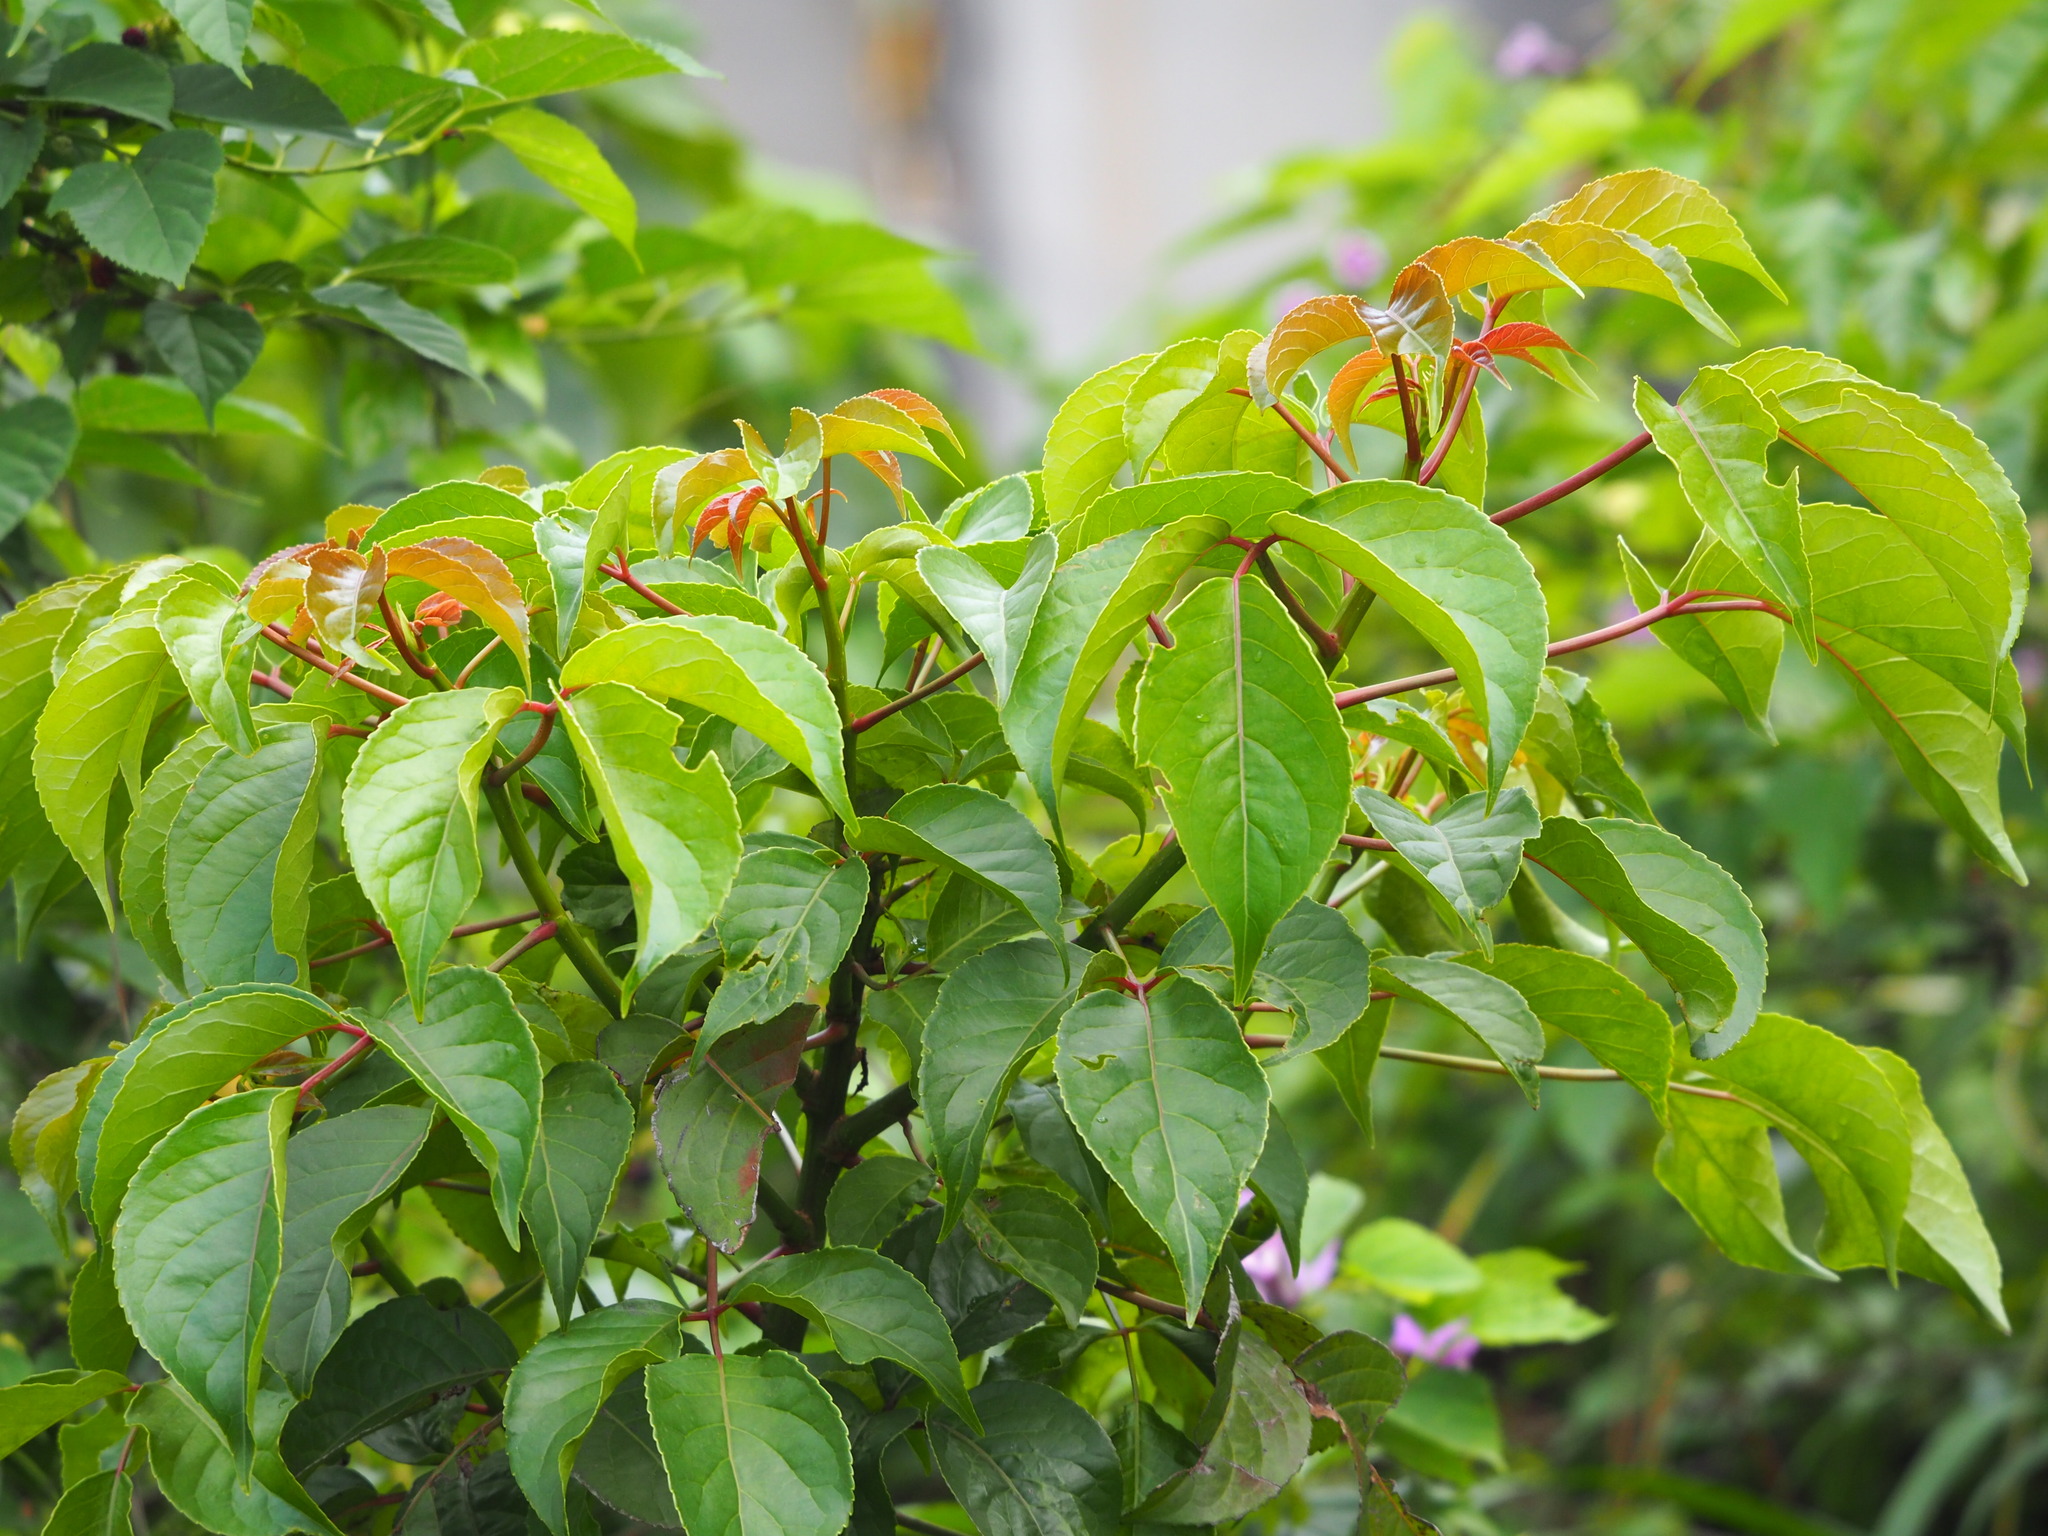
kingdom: Plantae
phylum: Tracheophyta
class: Magnoliopsida
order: Malpighiales
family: Phyllanthaceae
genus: Bischofia
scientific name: Bischofia javanica
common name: Javanese bishopwood
